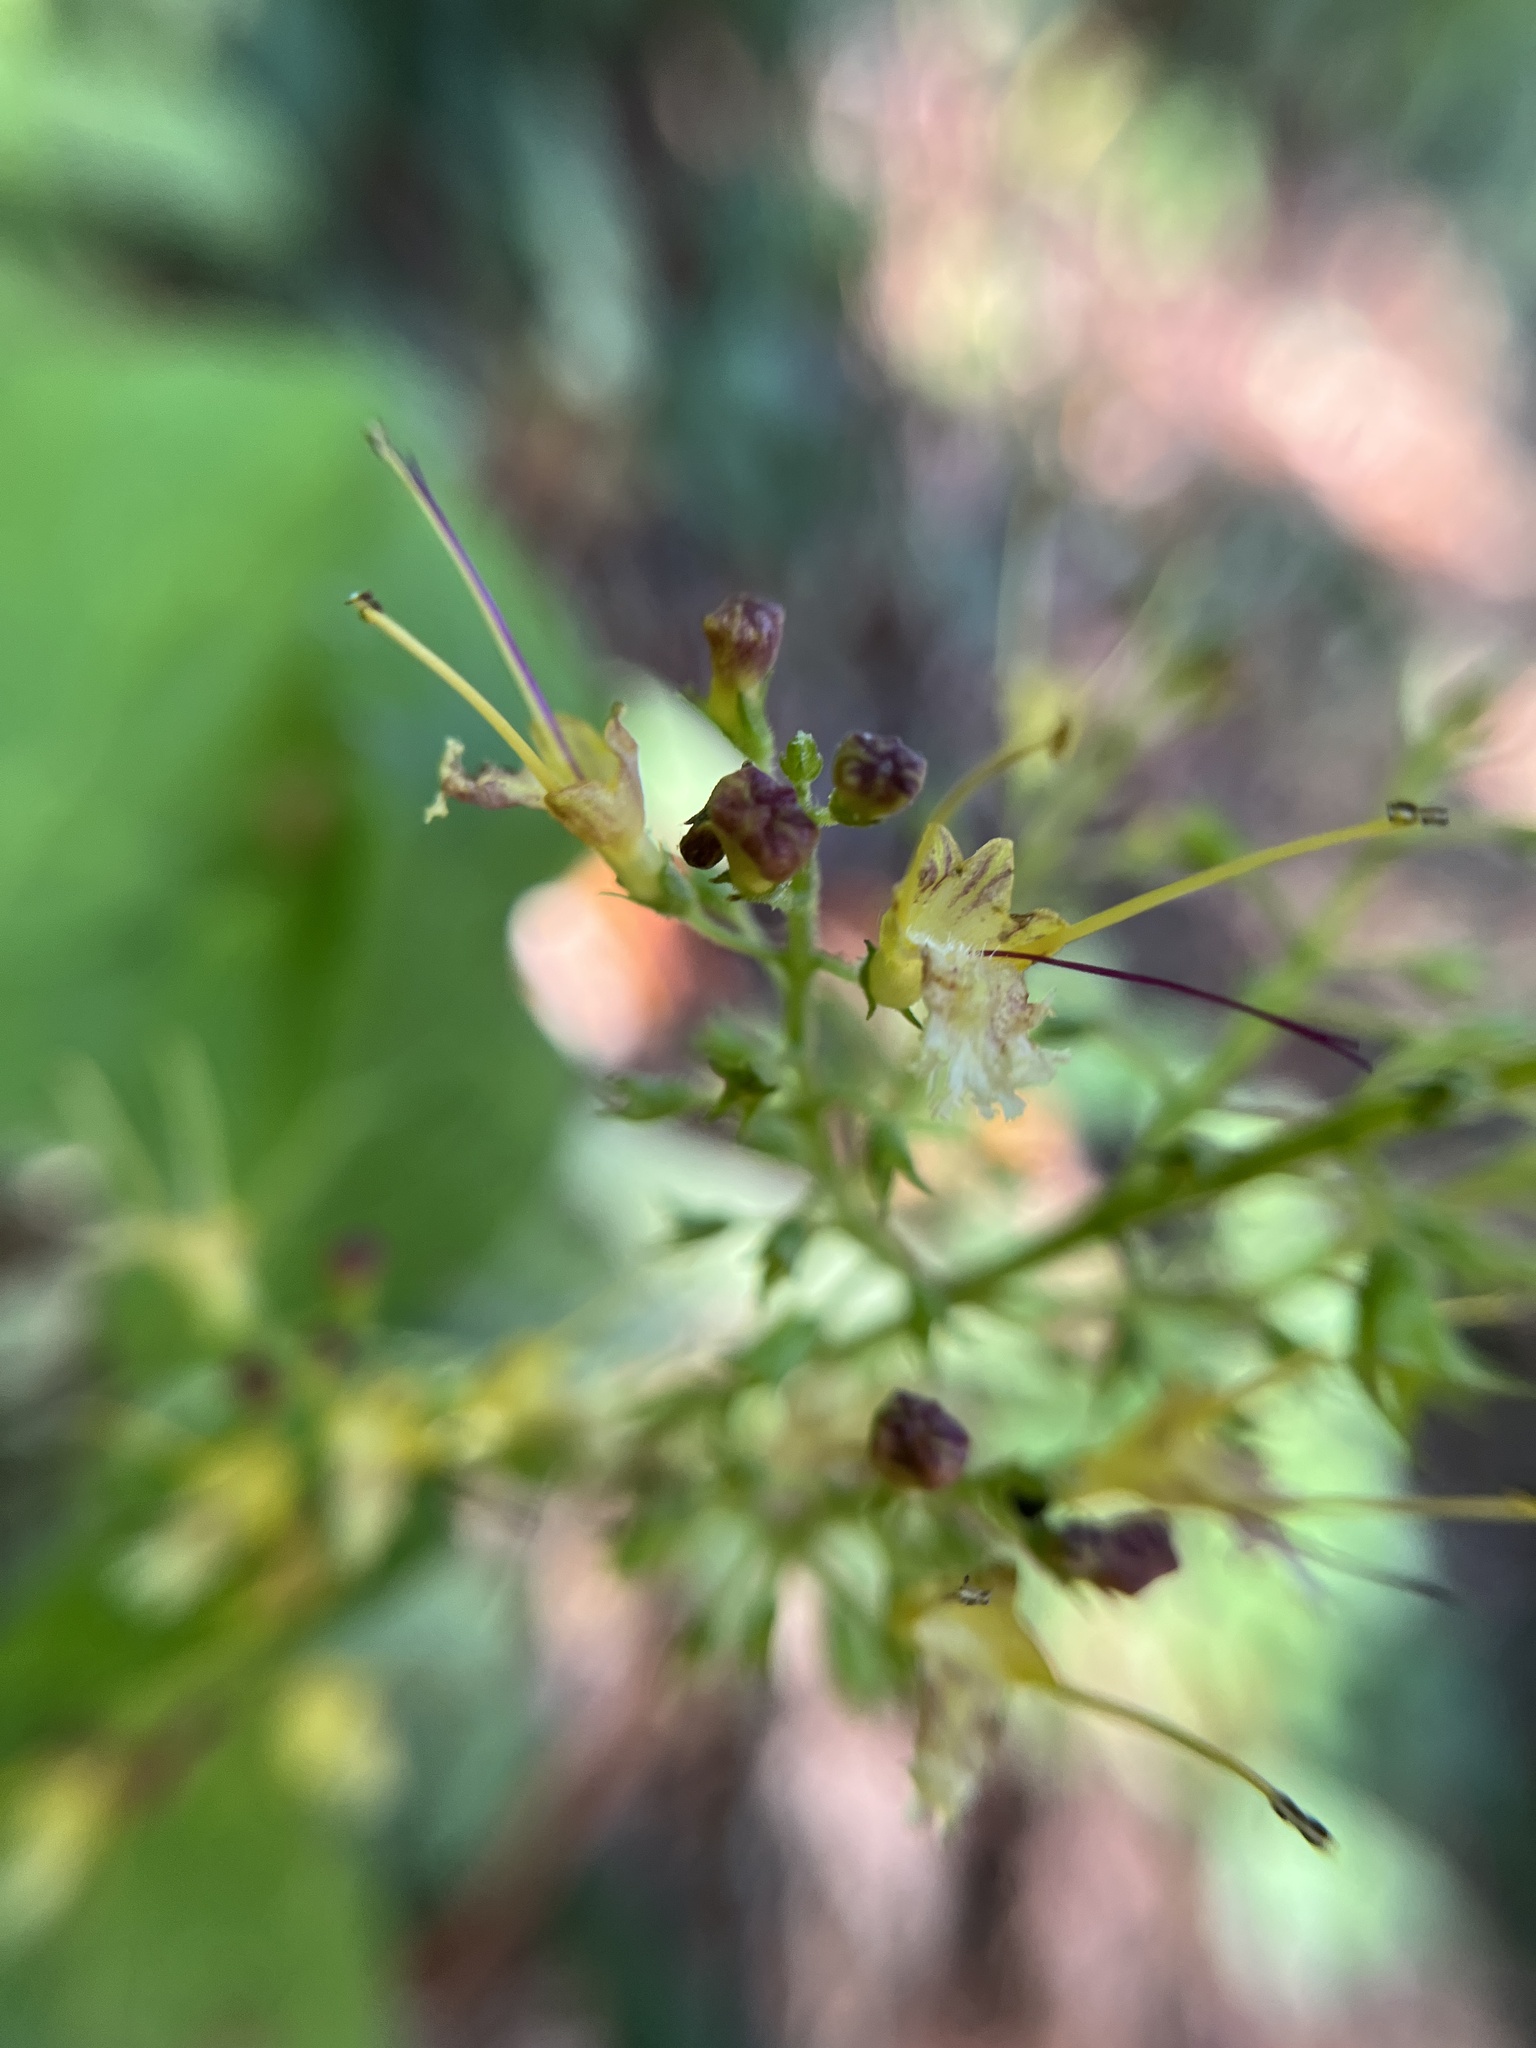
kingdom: Plantae
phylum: Tracheophyta
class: Magnoliopsida
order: Lamiales
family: Lamiaceae
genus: Collinsonia
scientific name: Collinsonia canadensis
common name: Northern horsebalm
